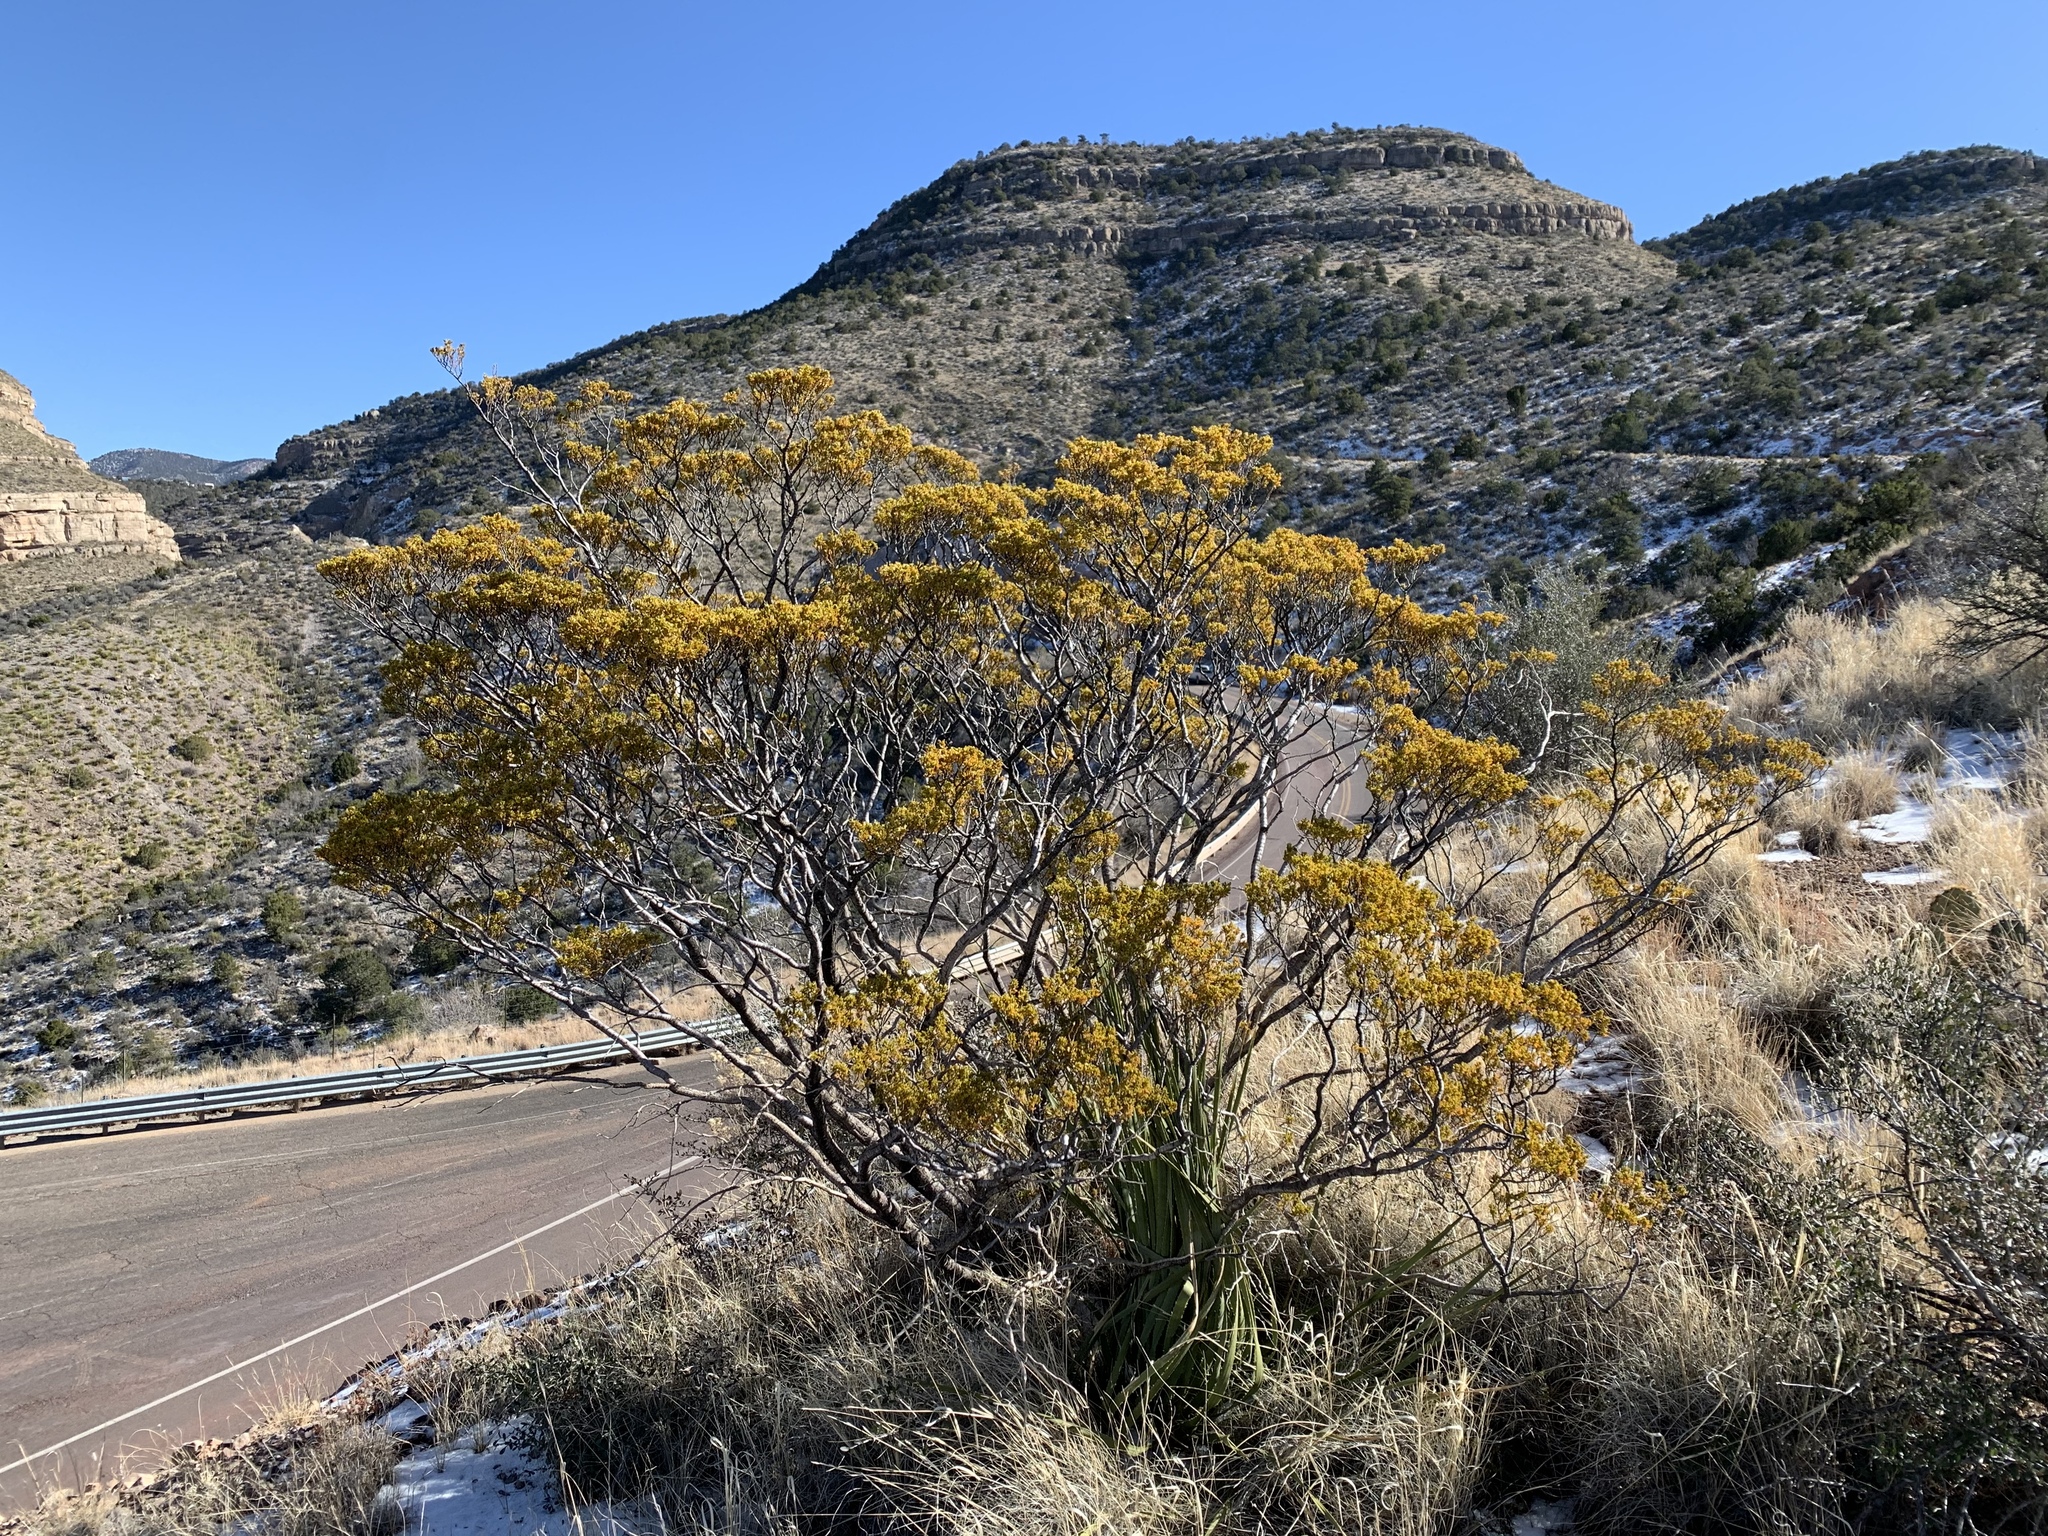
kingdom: Plantae
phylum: Tracheophyta
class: Magnoliopsida
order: Zygophyllales
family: Zygophyllaceae
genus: Larrea
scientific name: Larrea tridentata
